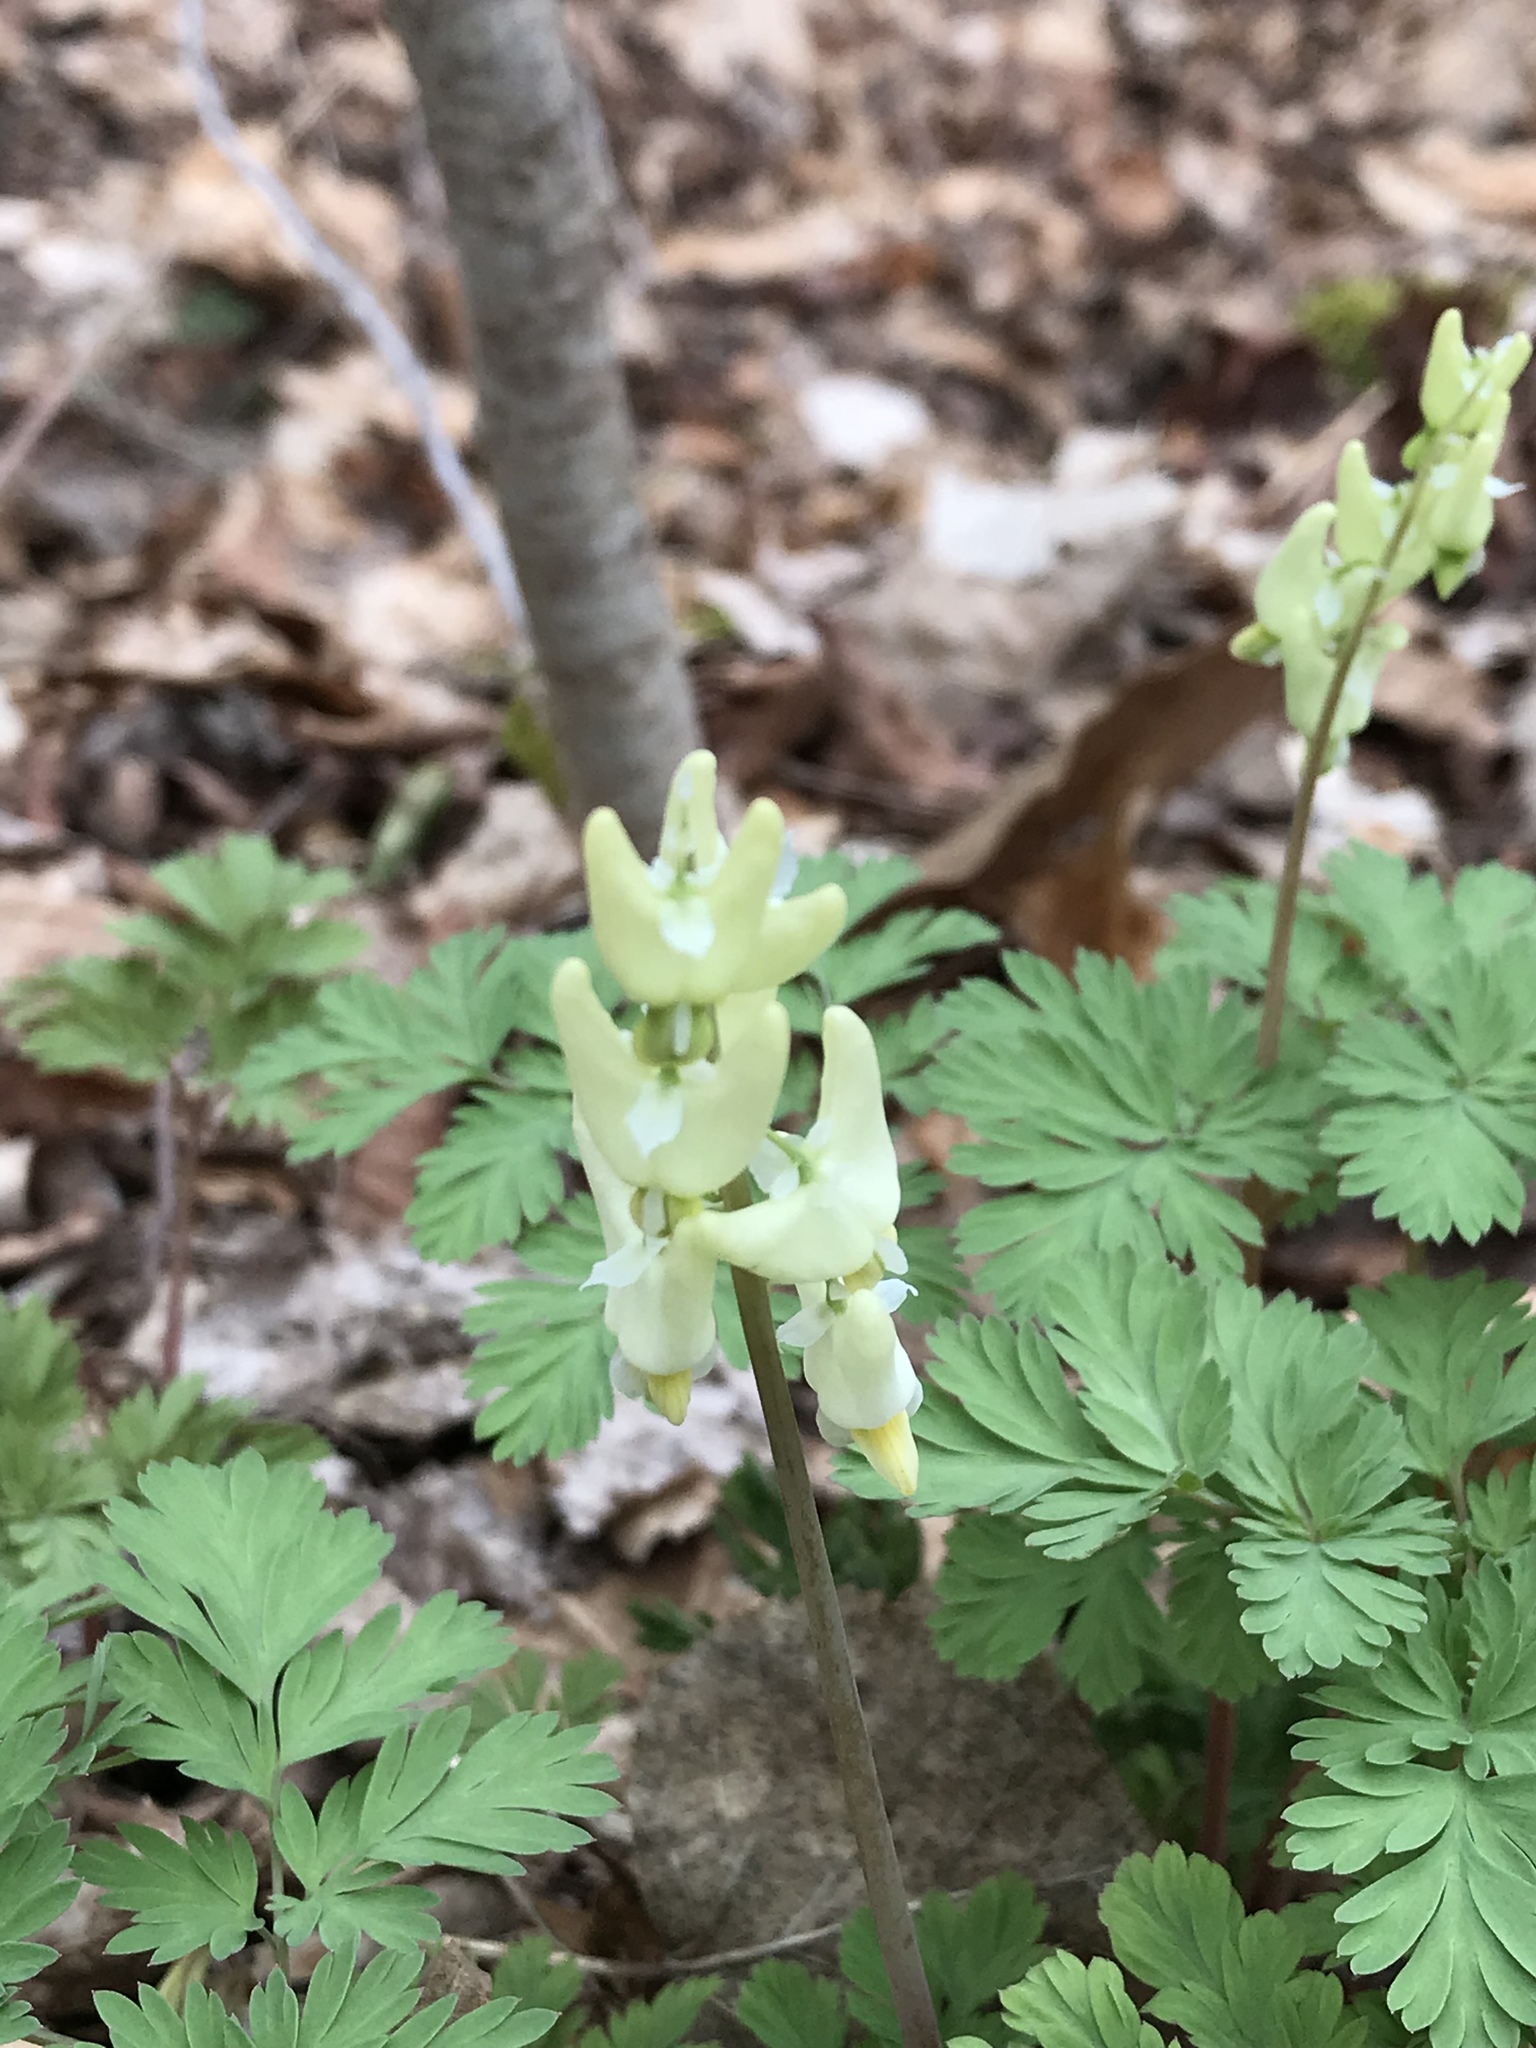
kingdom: Plantae
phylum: Tracheophyta
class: Magnoliopsida
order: Ranunculales
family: Papaveraceae
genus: Dicentra
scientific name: Dicentra cucullaria
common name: Dutchman's breeches
